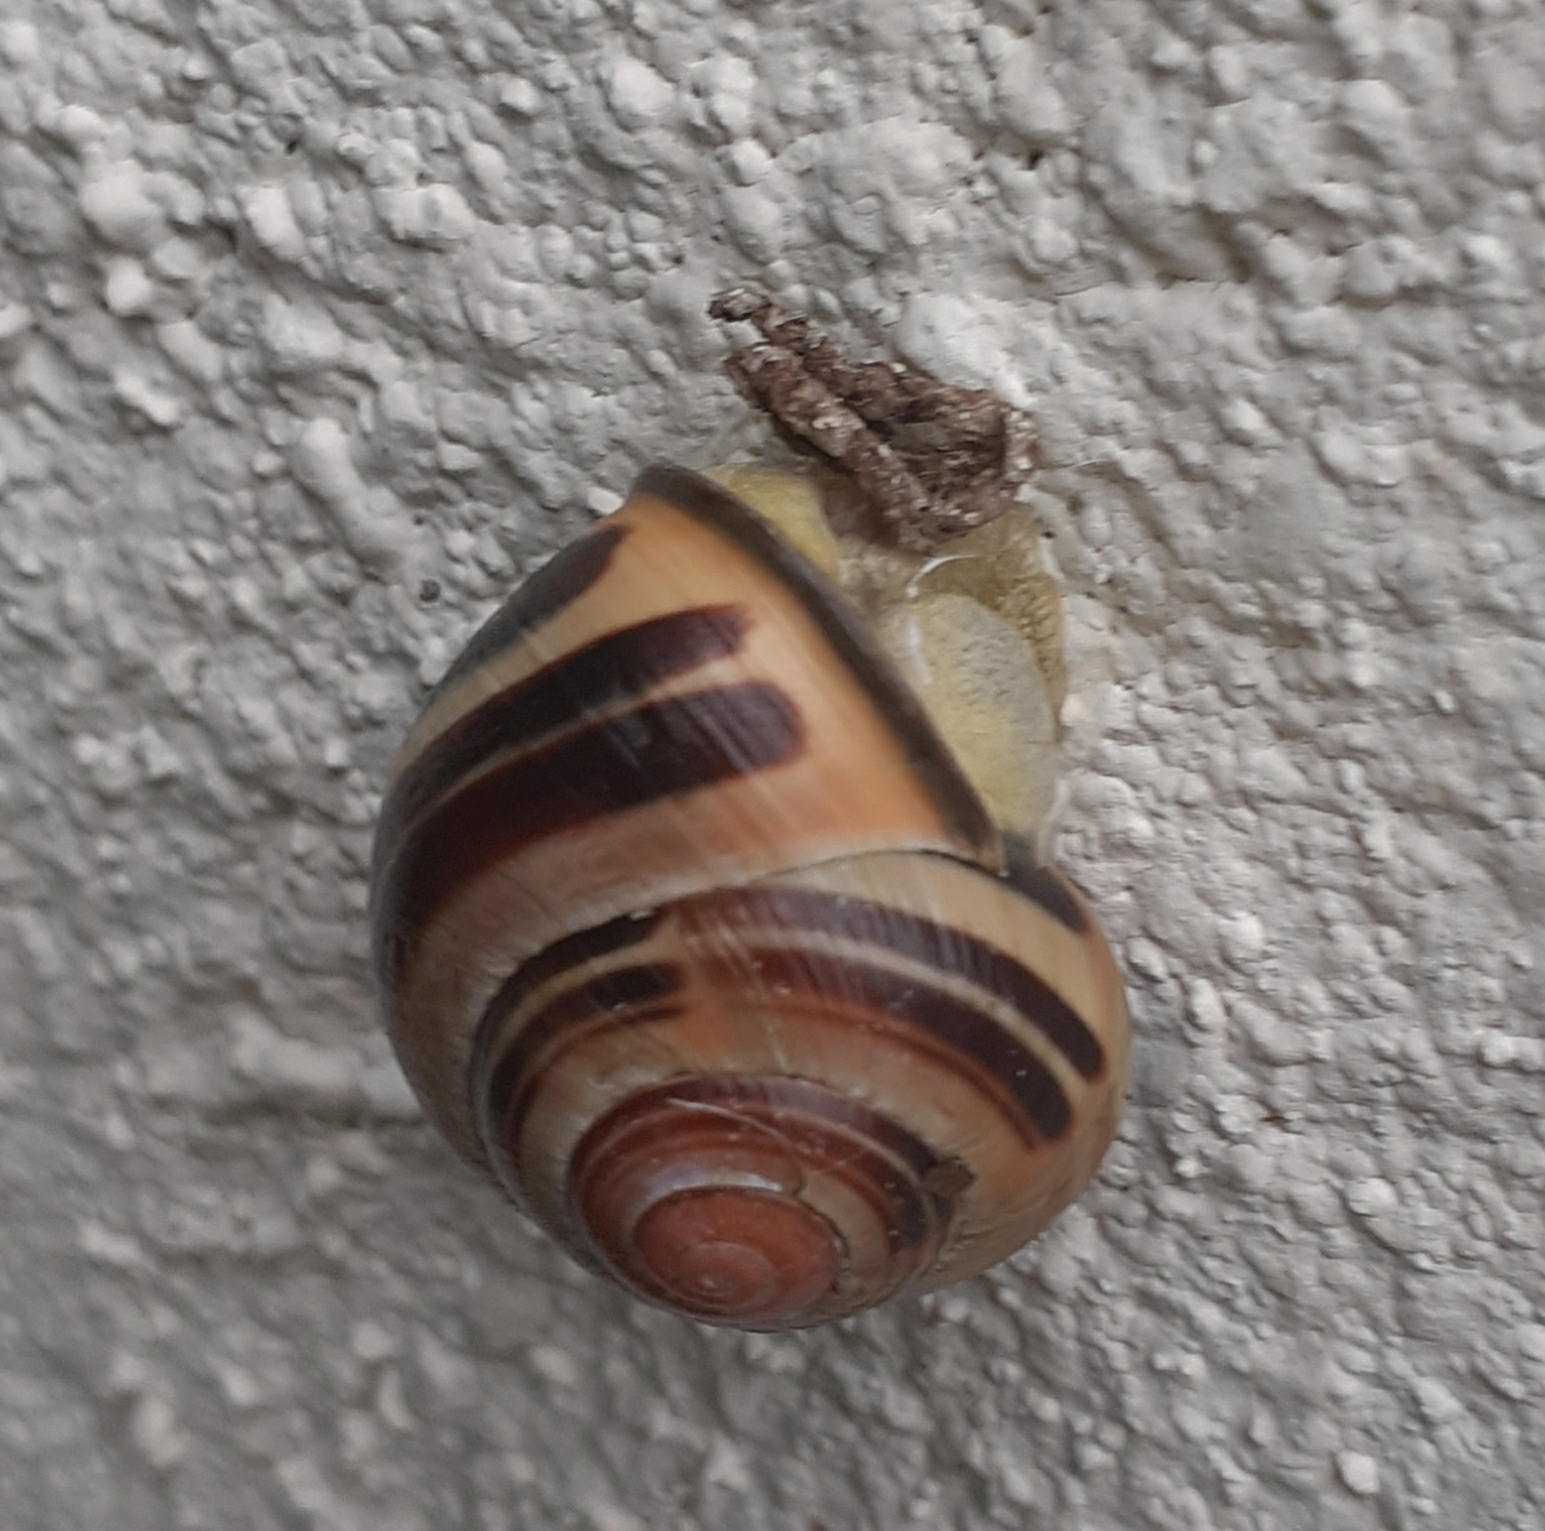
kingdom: Animalia
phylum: Mollusca
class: Gastropoda
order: Stylommatophora
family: Helicidae
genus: Cepaea
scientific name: Cepaea nemoralis
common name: Grovesnail
